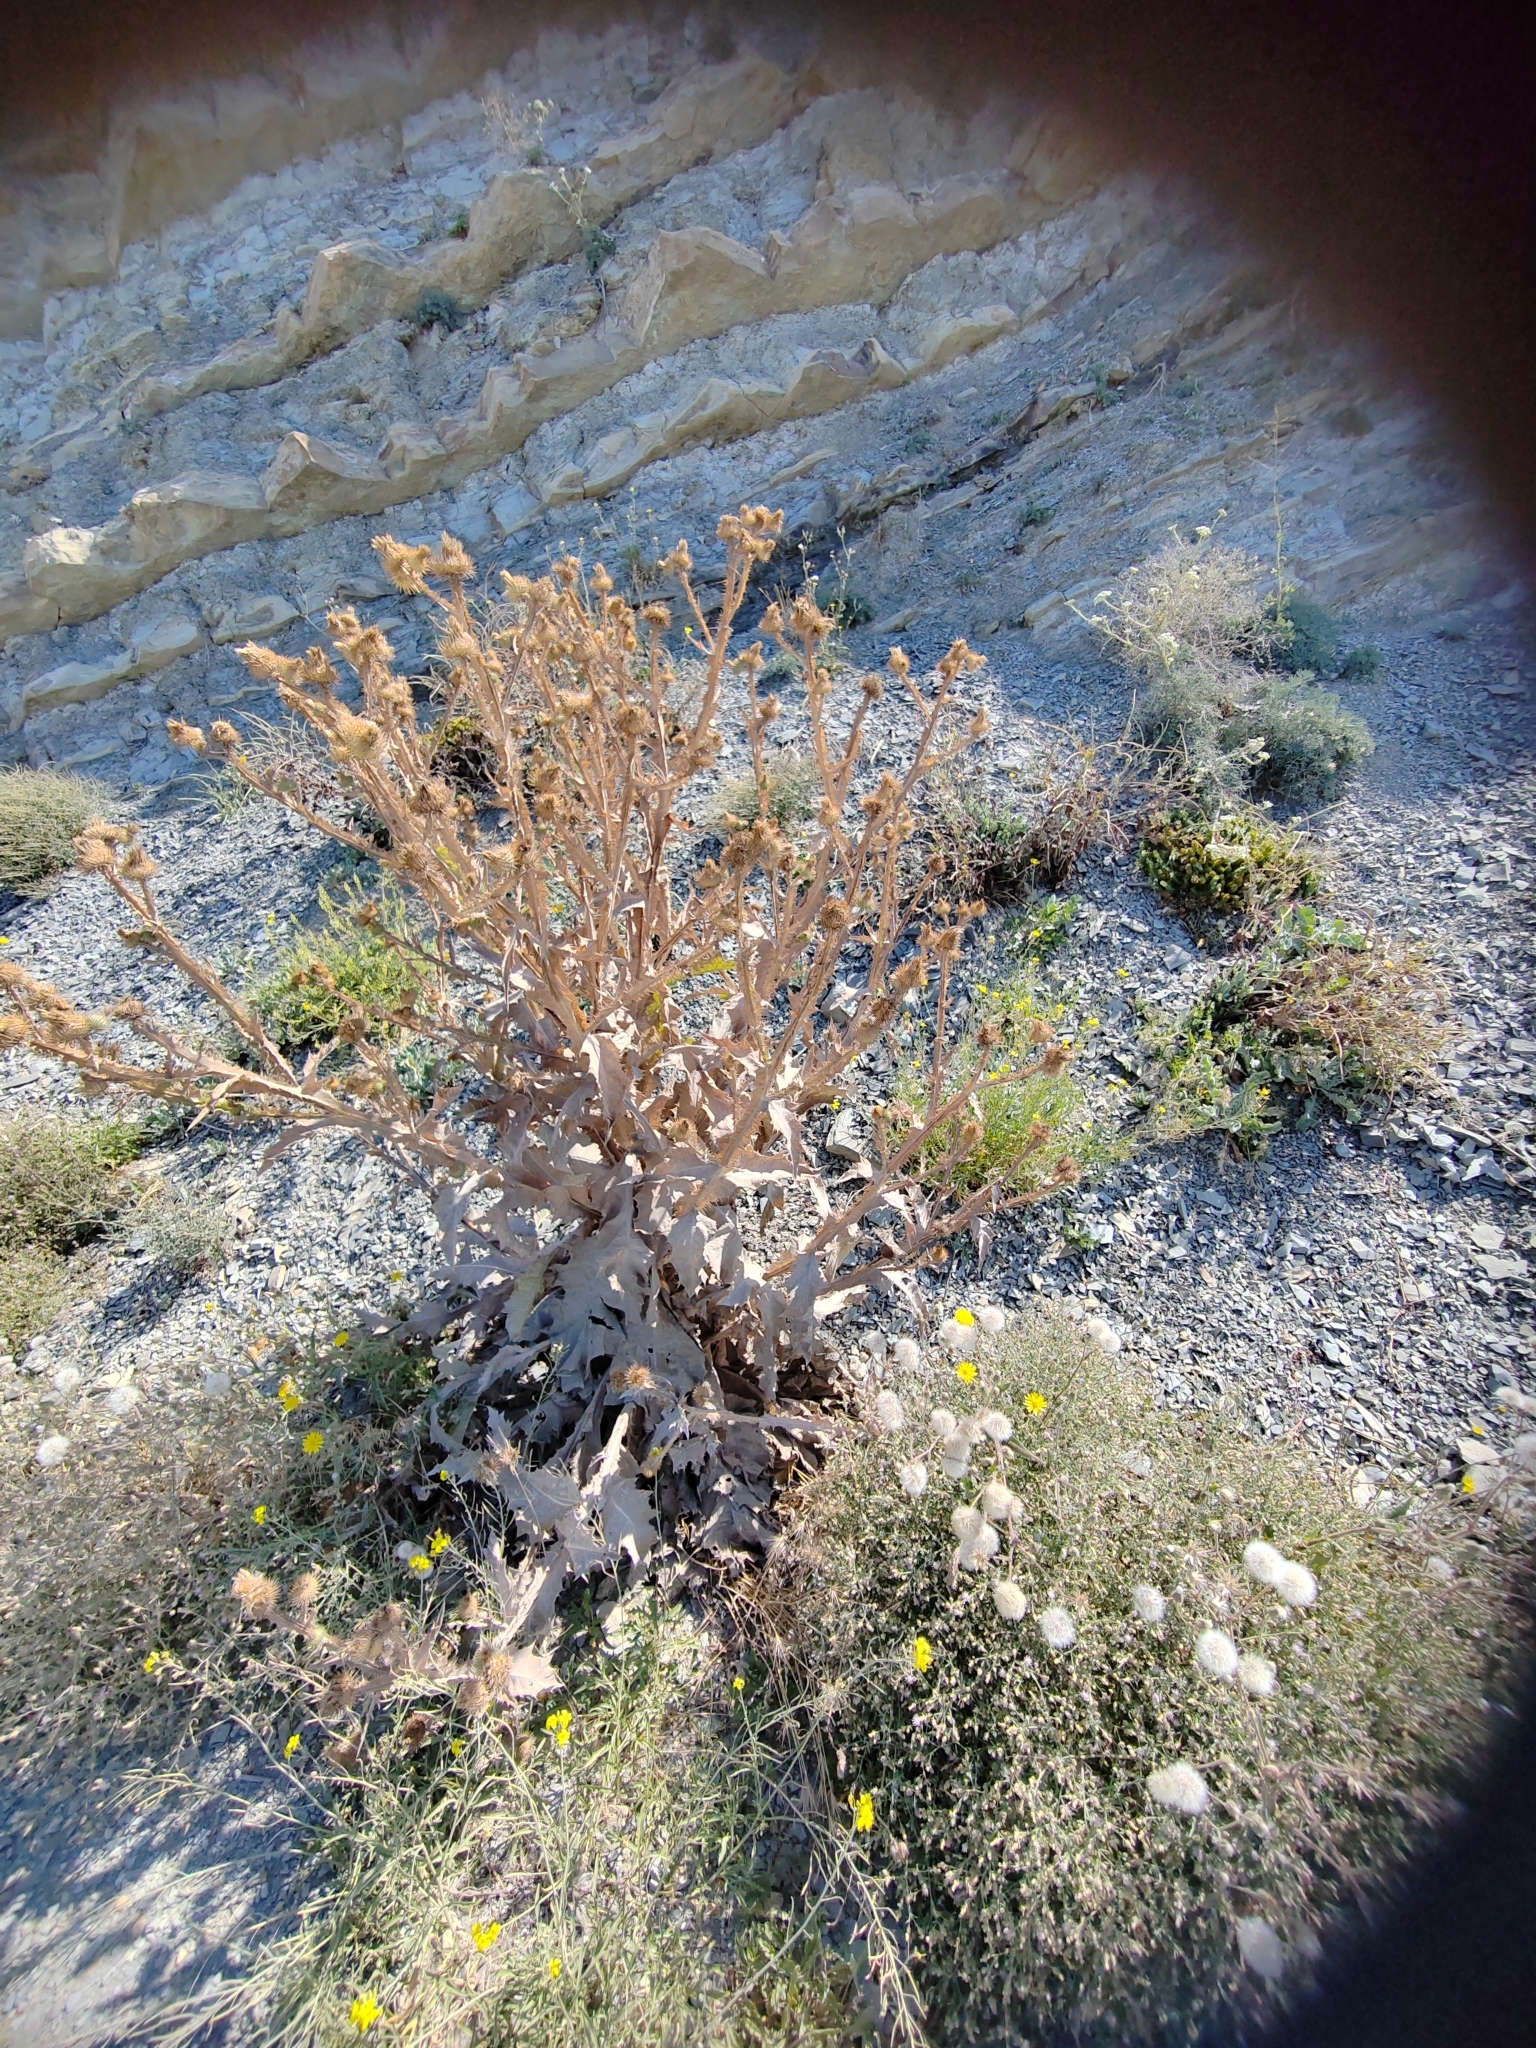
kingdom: Plantae
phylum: Tracheophyta
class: Magnoliopsida
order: Asterales
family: Asteraceae
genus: Onopordum
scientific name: Onopordum acanthium
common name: Scotch thistle
